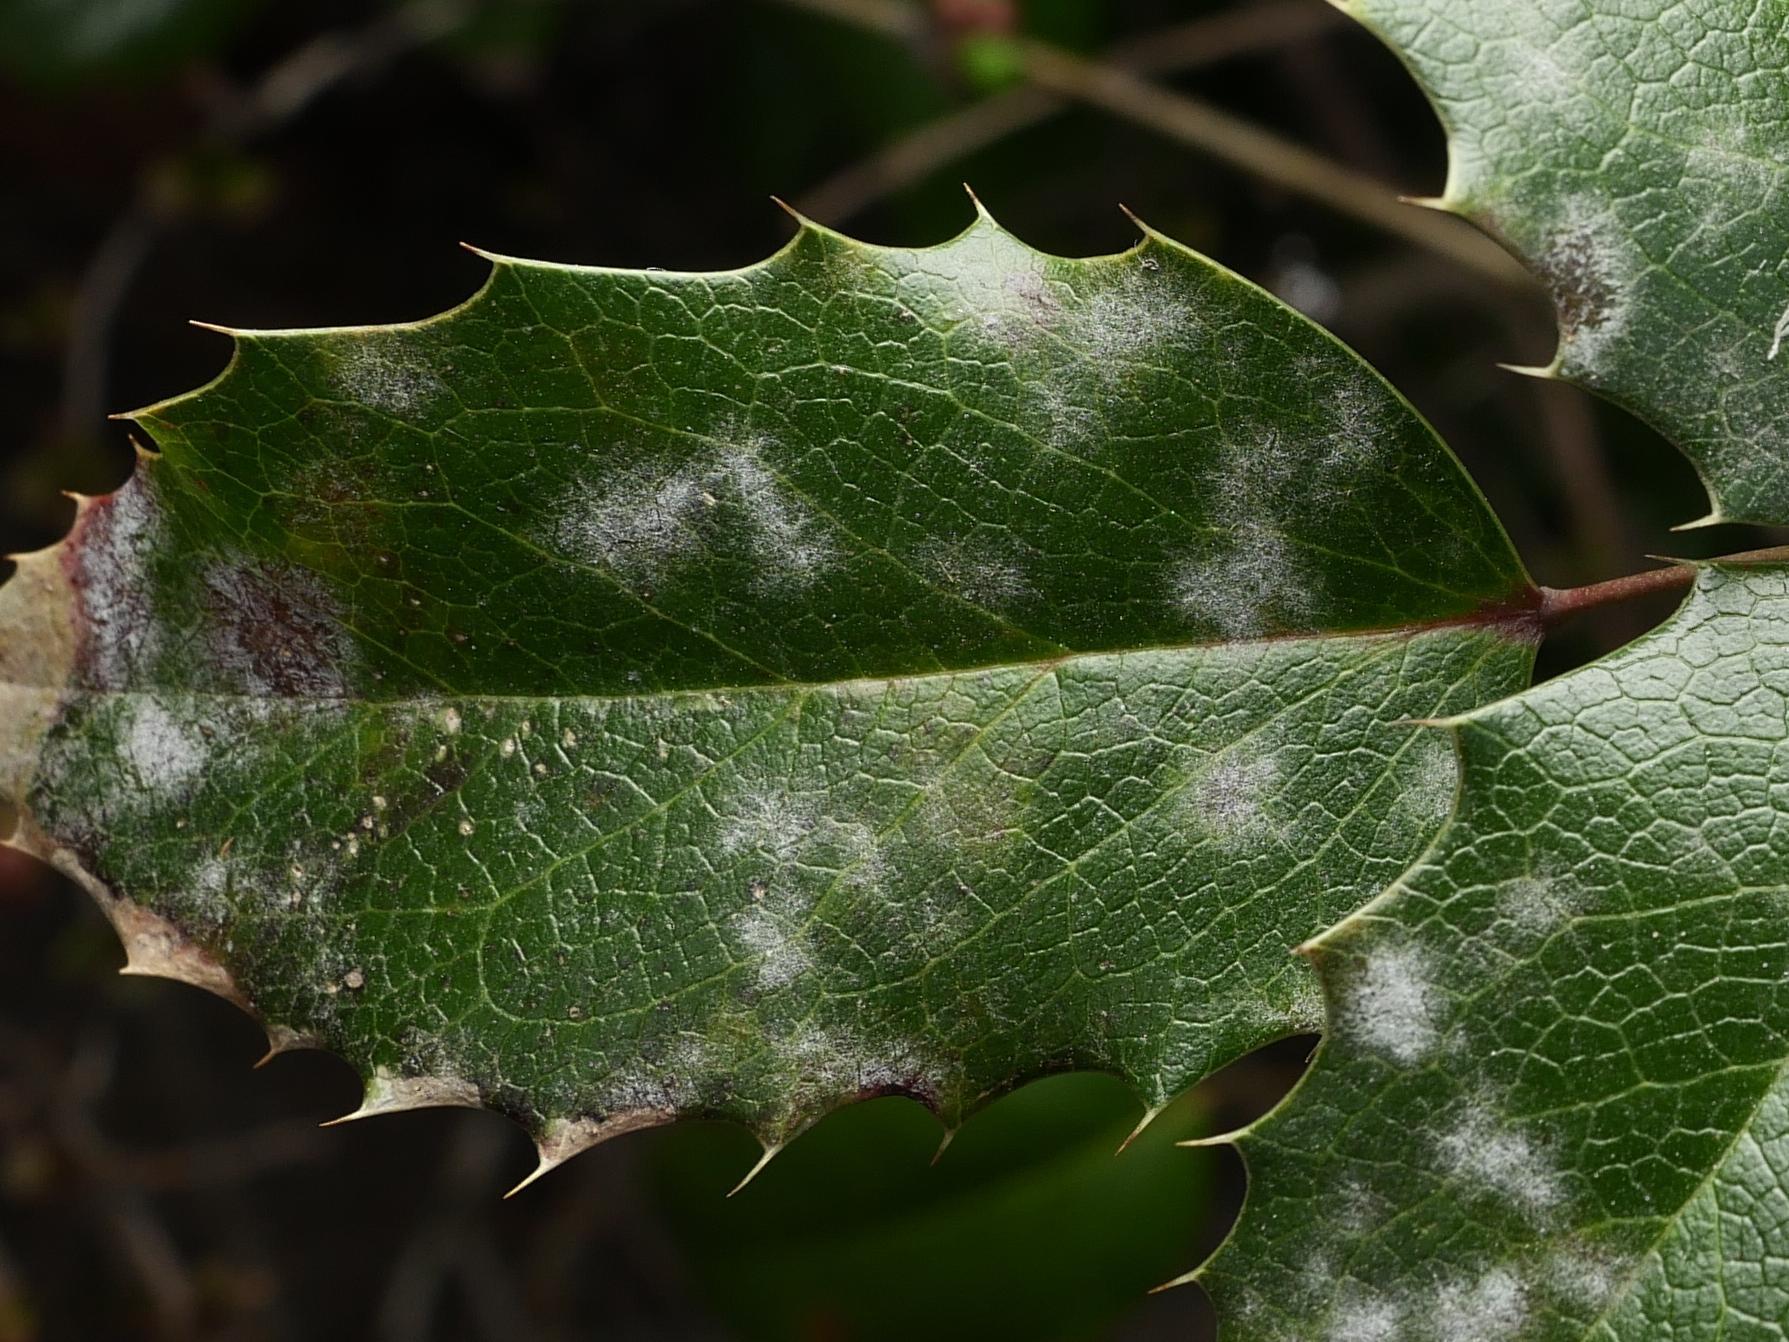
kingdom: Fungi
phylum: Ascomycota
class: Leotiomycetes
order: Helotiales
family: Erysiphaceae
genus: Erysiphe
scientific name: Erysiphe berberidis
